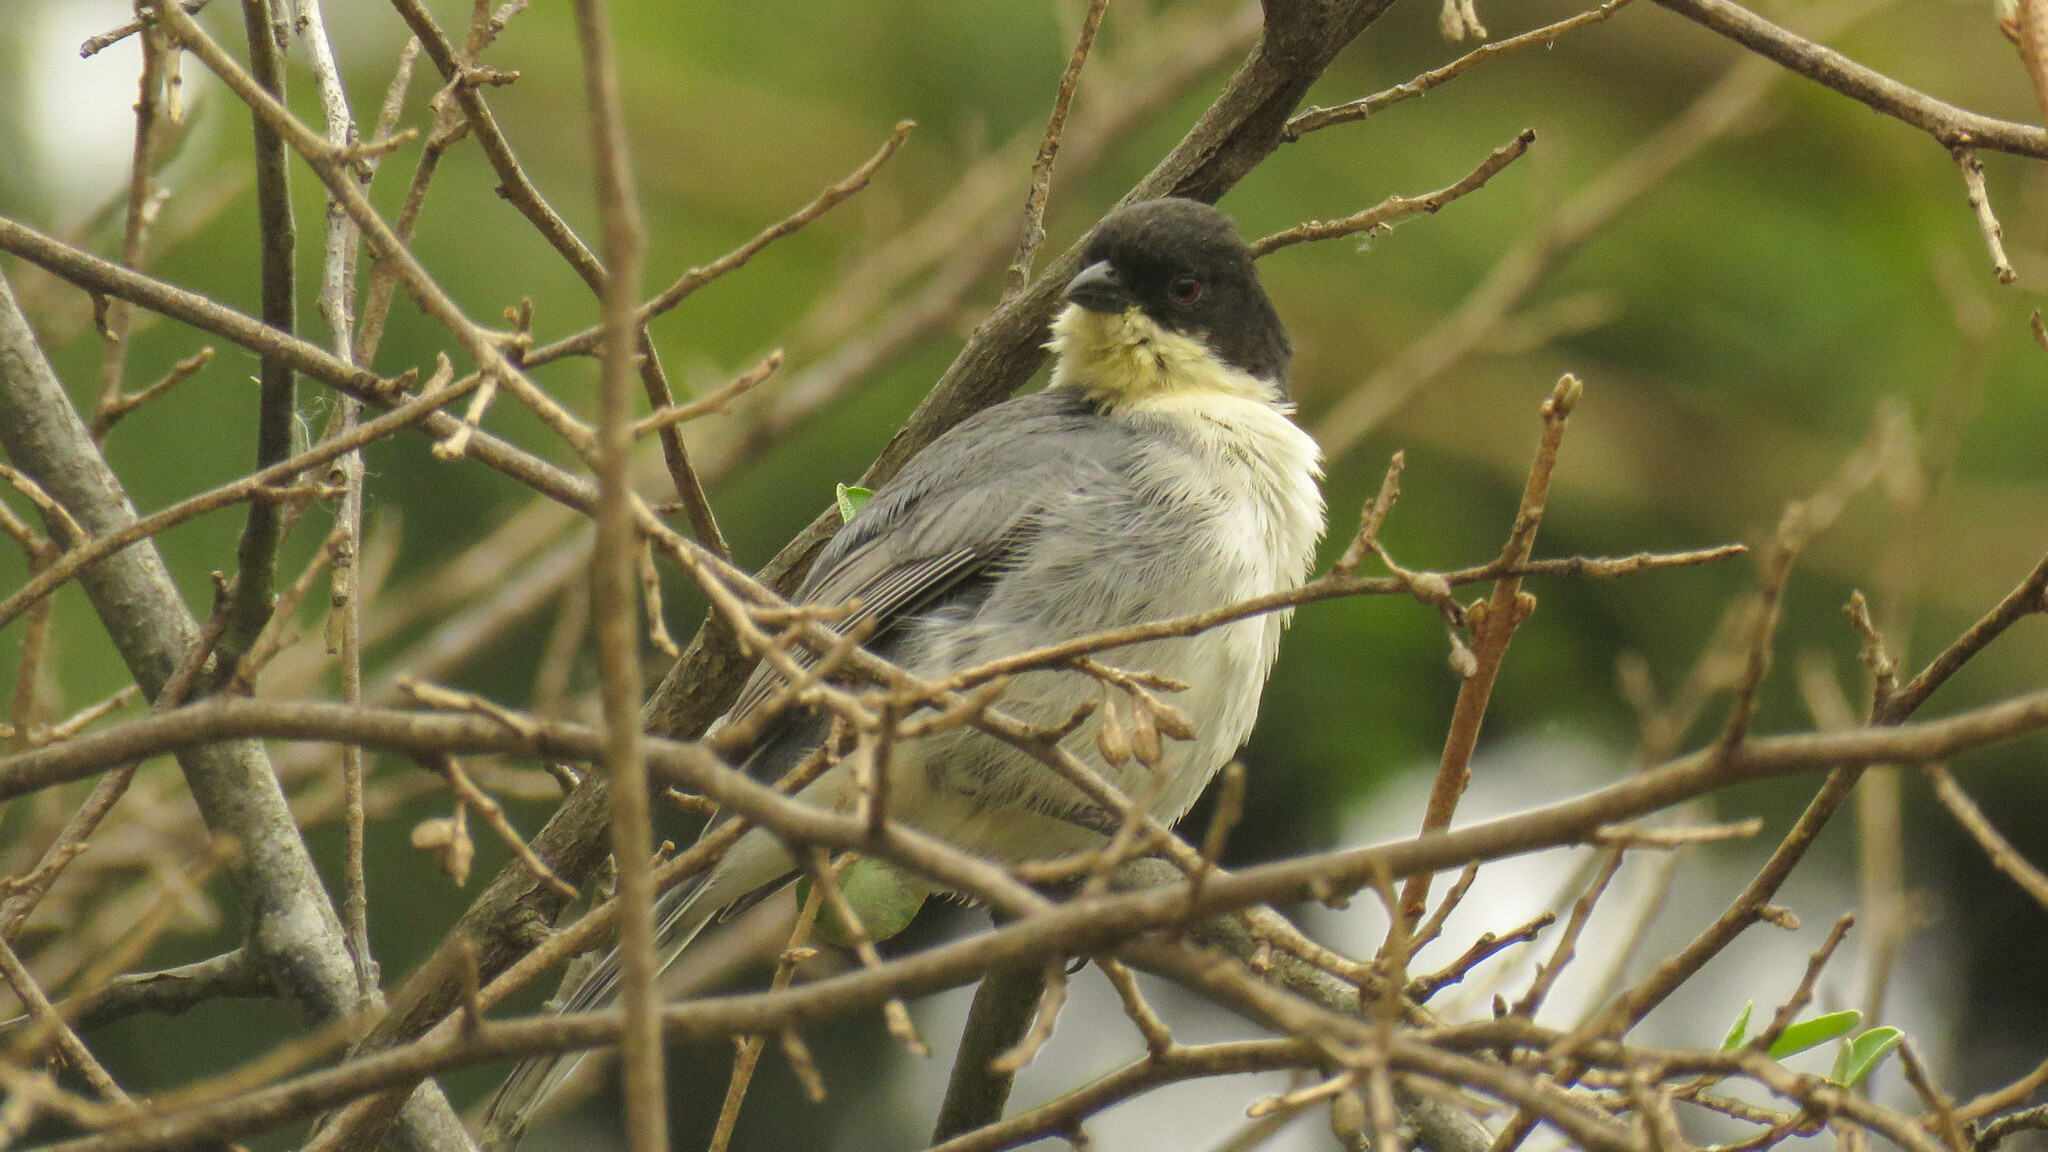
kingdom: Animalia
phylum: Chordata
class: Aves
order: Passeriformes
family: Thraupidae
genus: Microspingus
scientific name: Microspingus melanoleucus
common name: Black-capped warbling-finch
